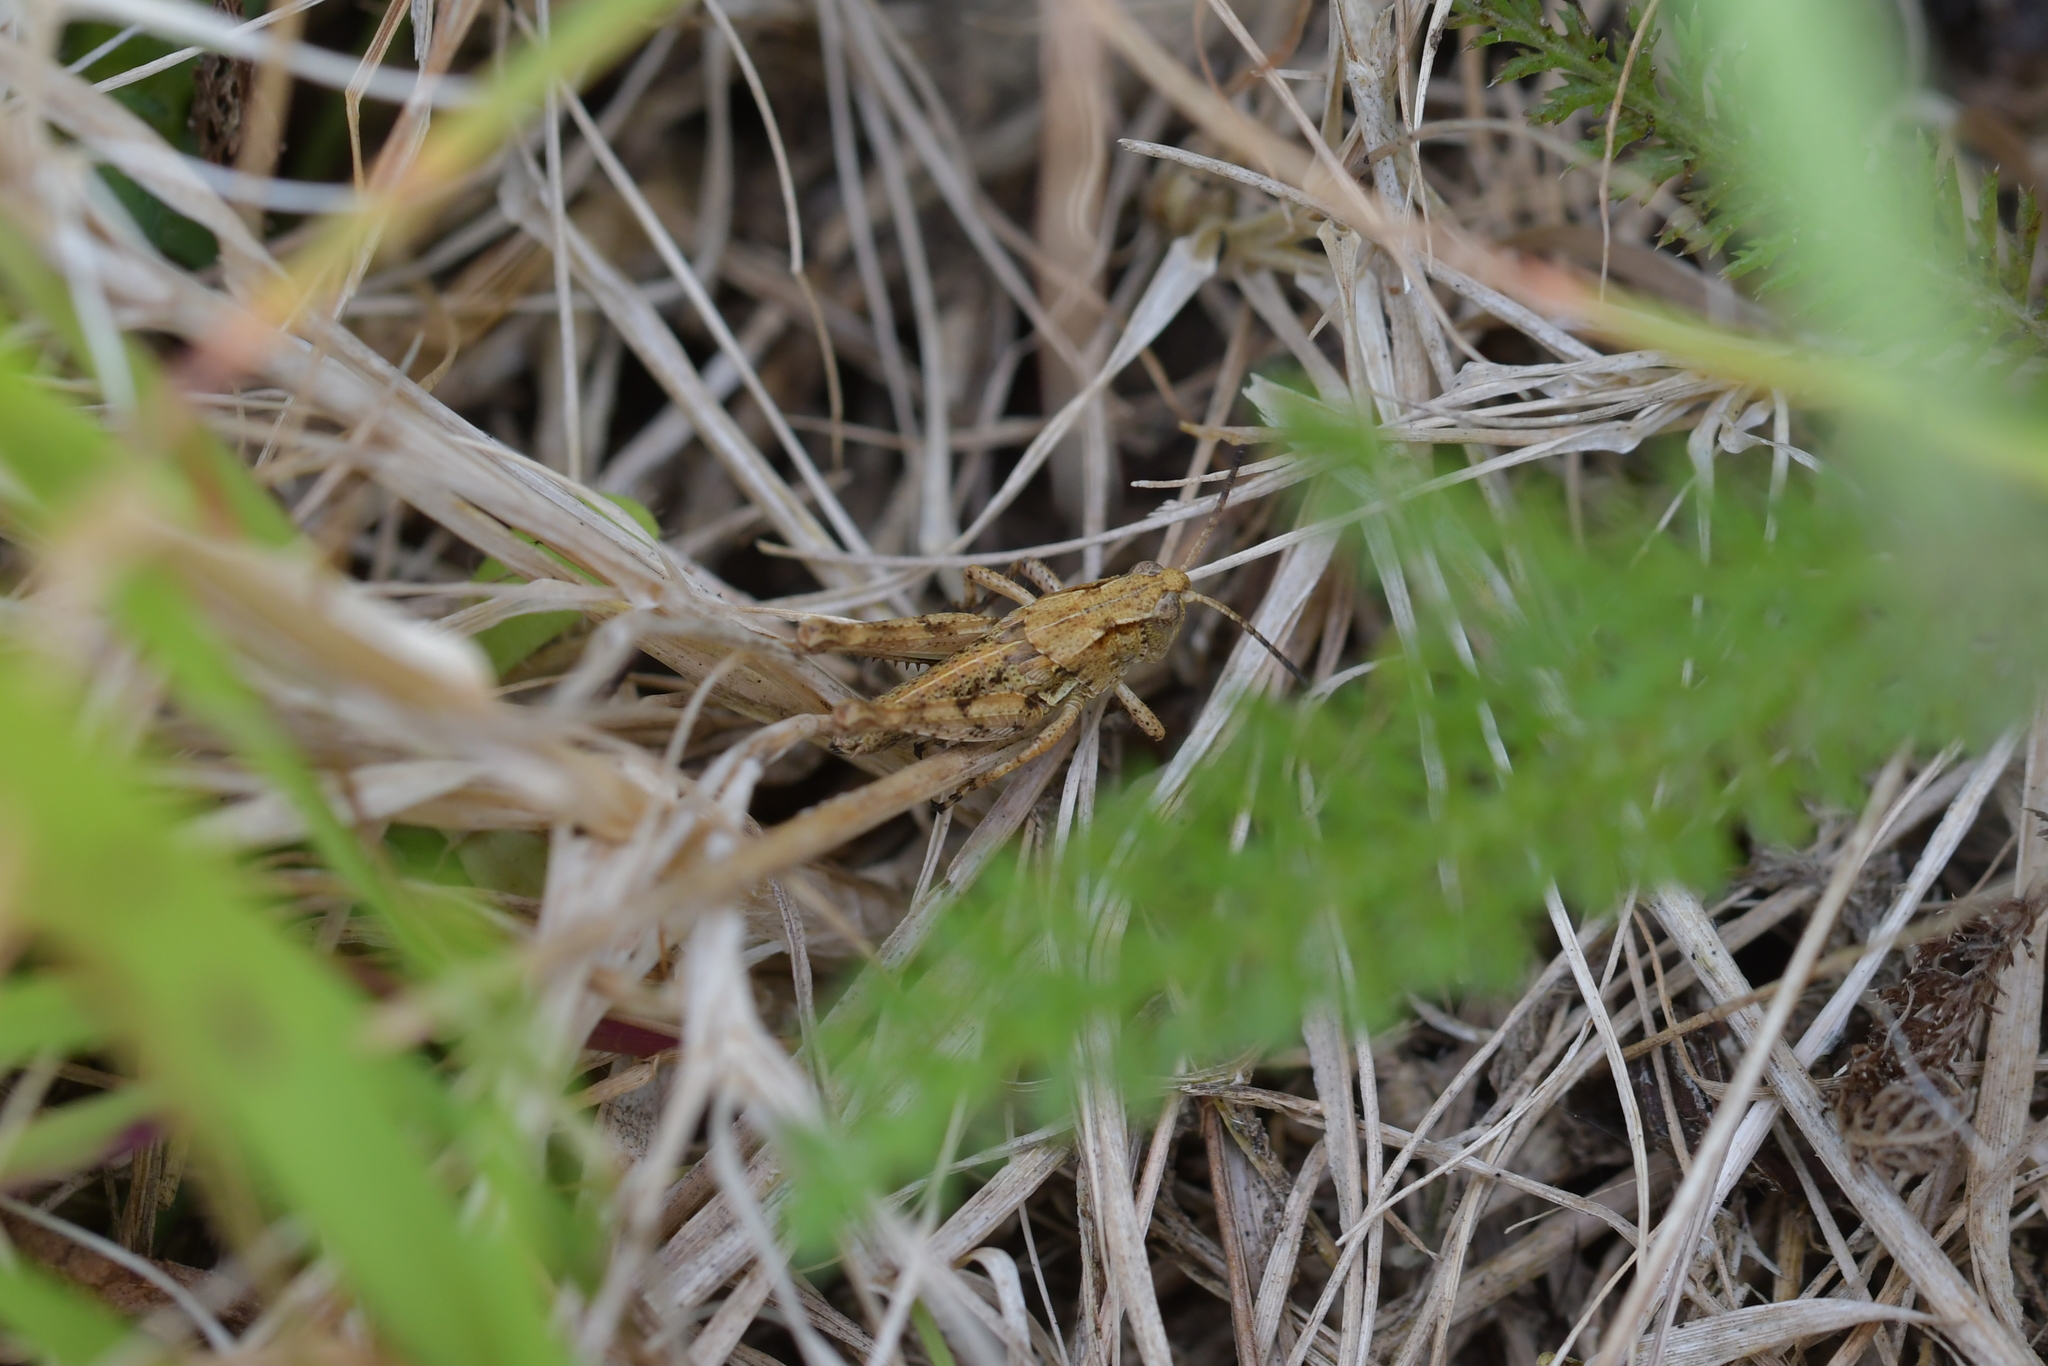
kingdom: Animalia
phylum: Arthropoda
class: Insecta
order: Orthoptera
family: Acrididae
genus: Phaulacridium
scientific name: Phaulacridium marginale
